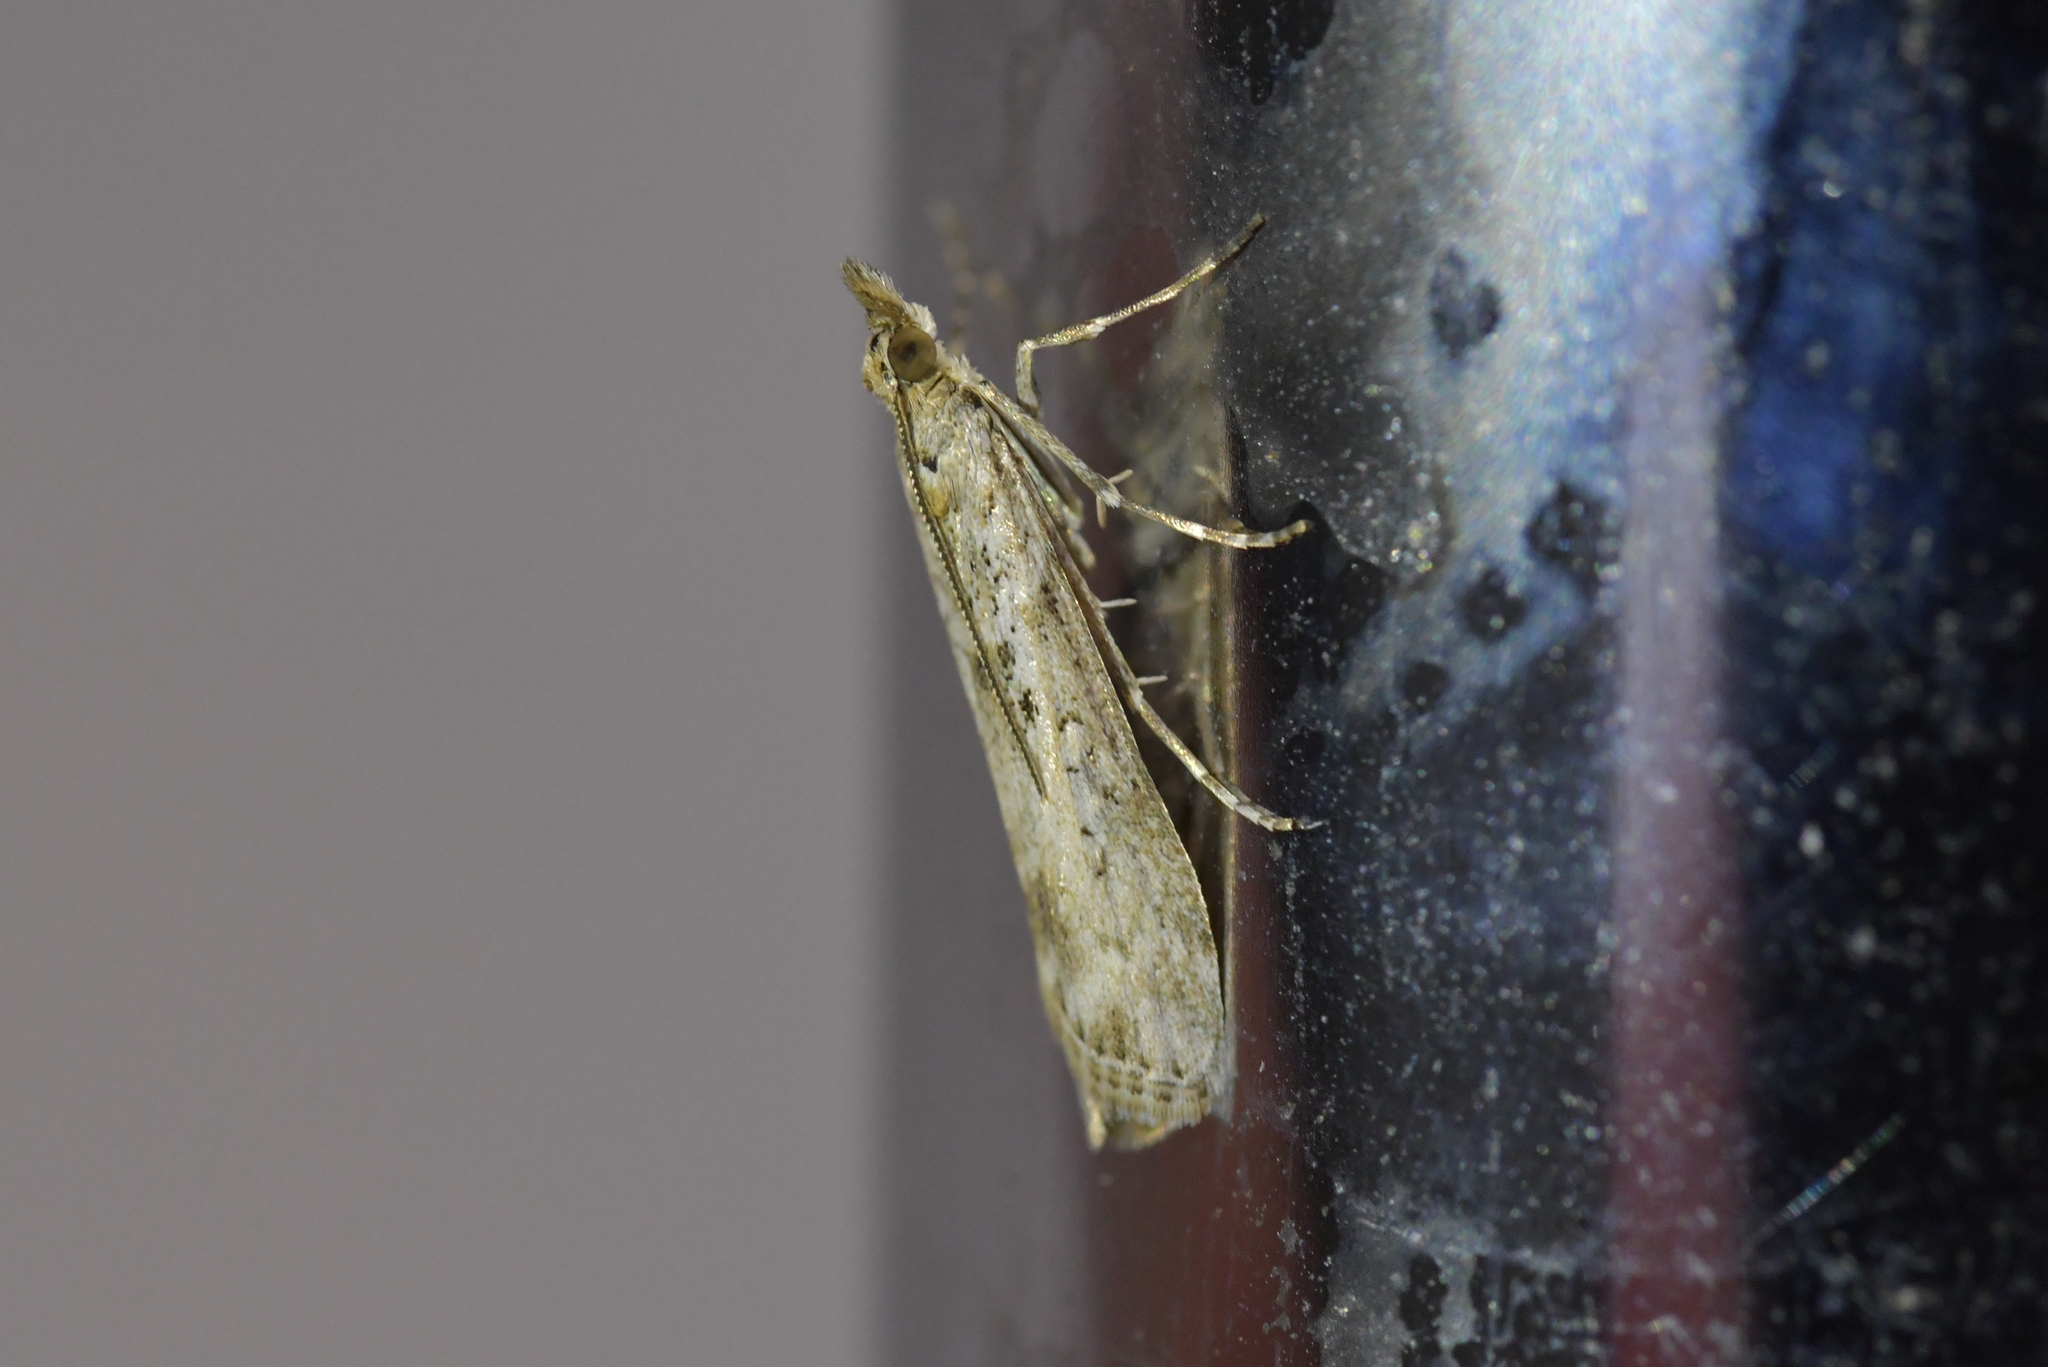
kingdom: Animalia
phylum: Arthropoda
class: Insecta
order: Lepidoptera
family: Crambidae
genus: Eudonia
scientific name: Eudonia leptalea
